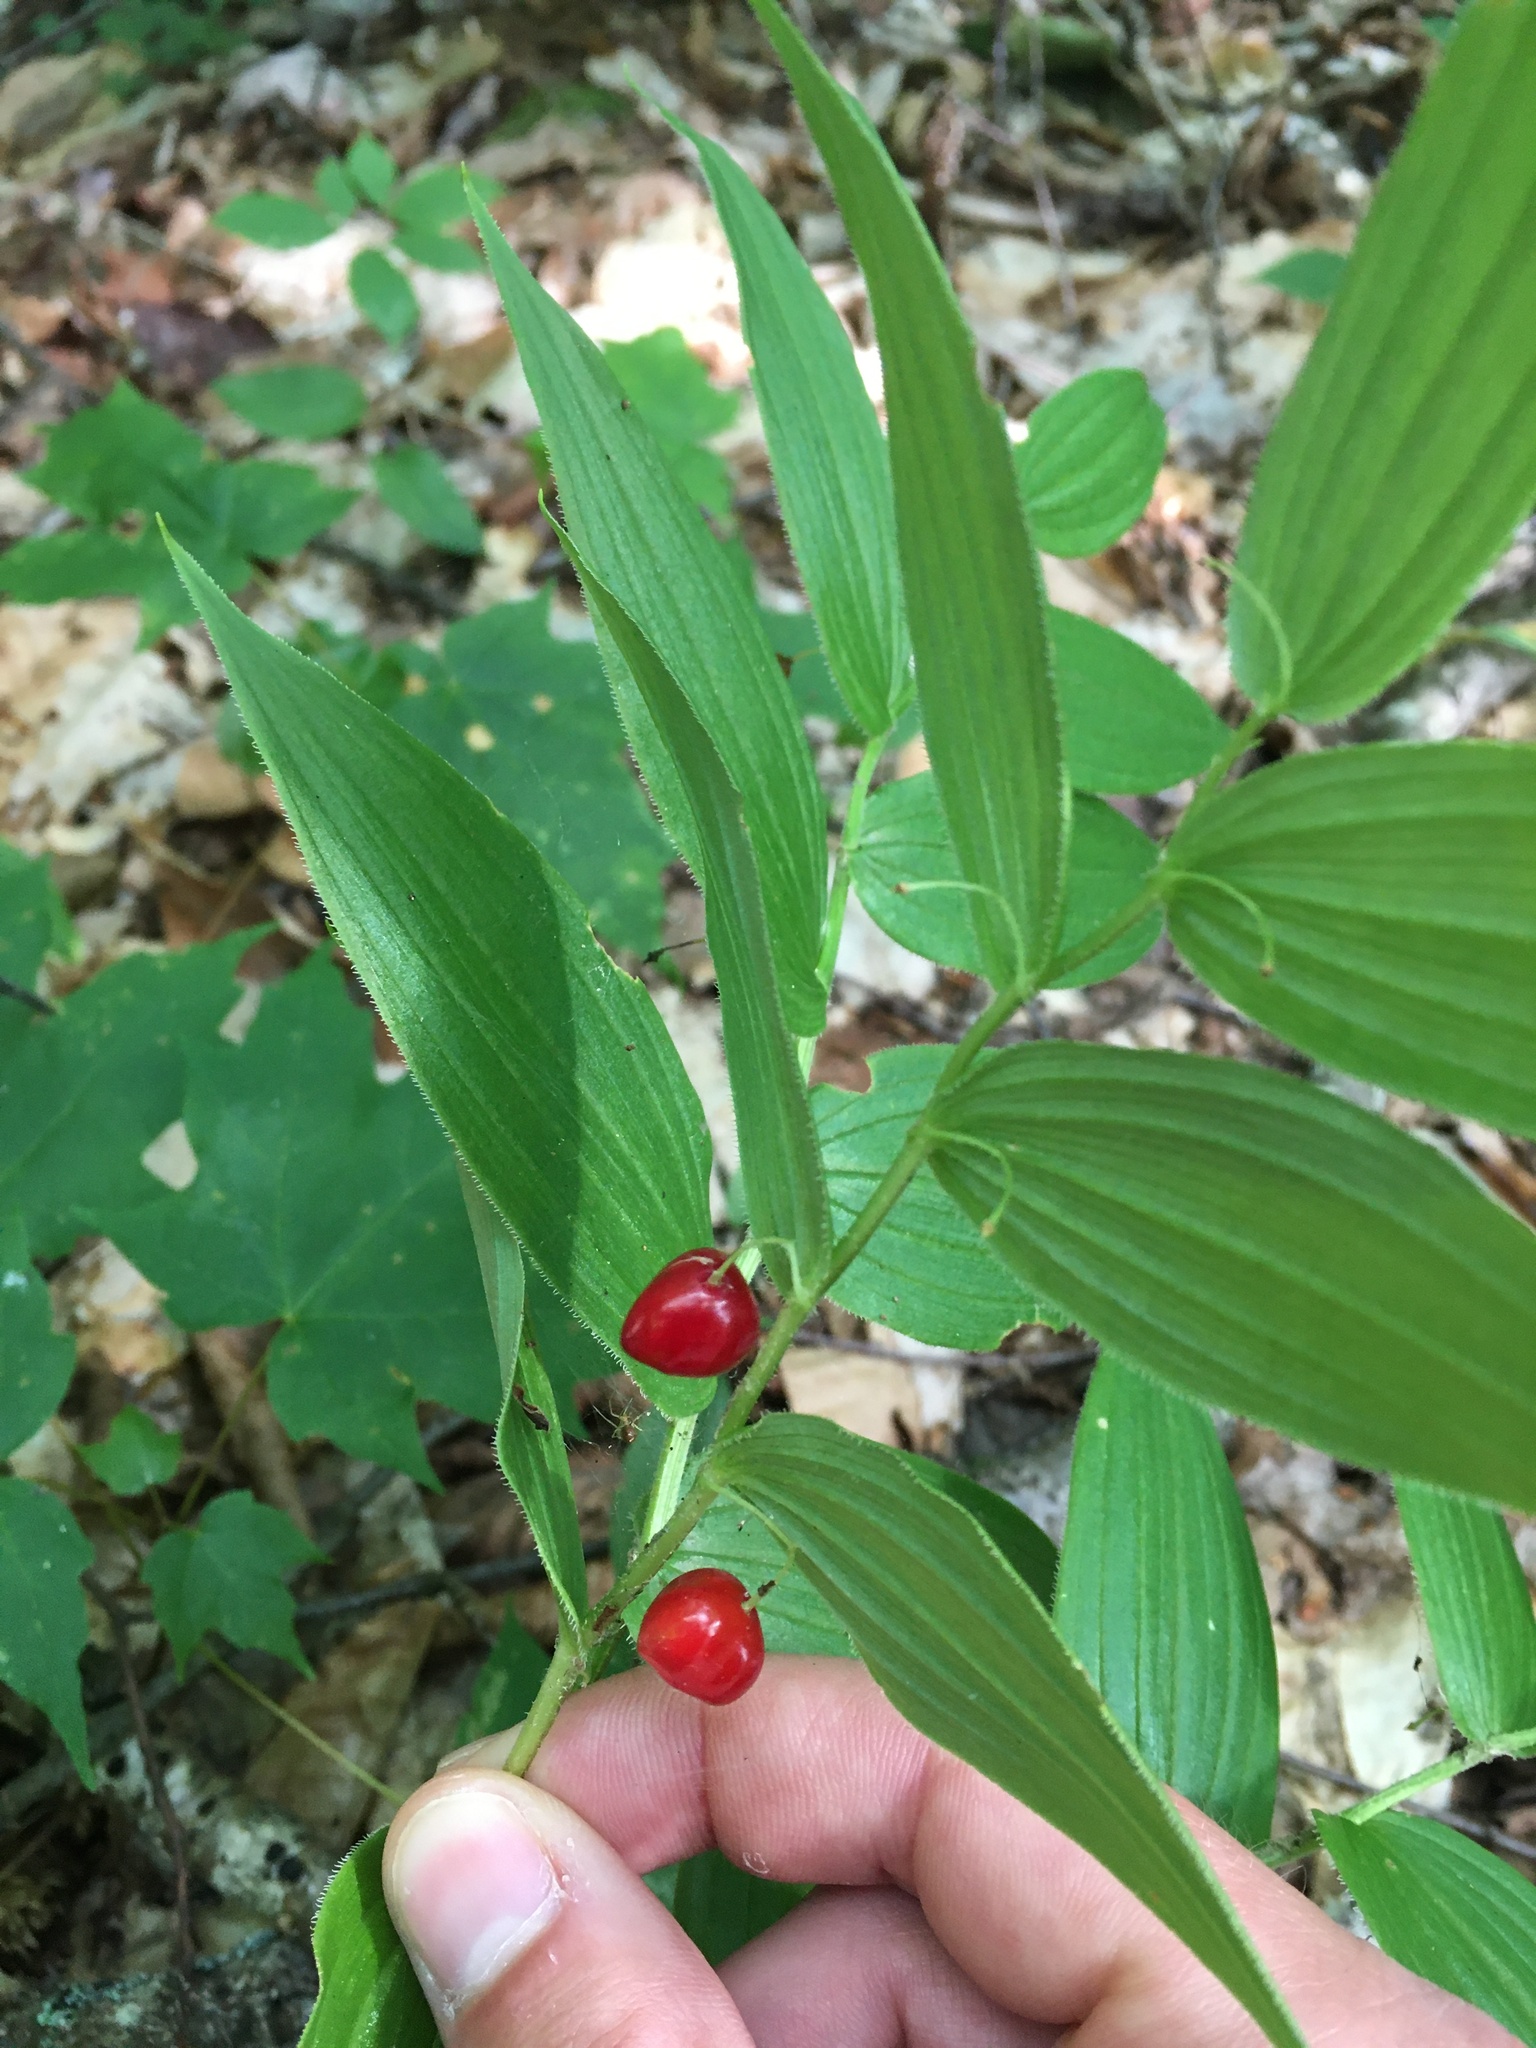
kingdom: Plantae
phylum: Tracheophyta
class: Liliopsida
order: Liliales
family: Liliaceae
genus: Streptopus
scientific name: Streptopus lanceolatus
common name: Rose mandarin
